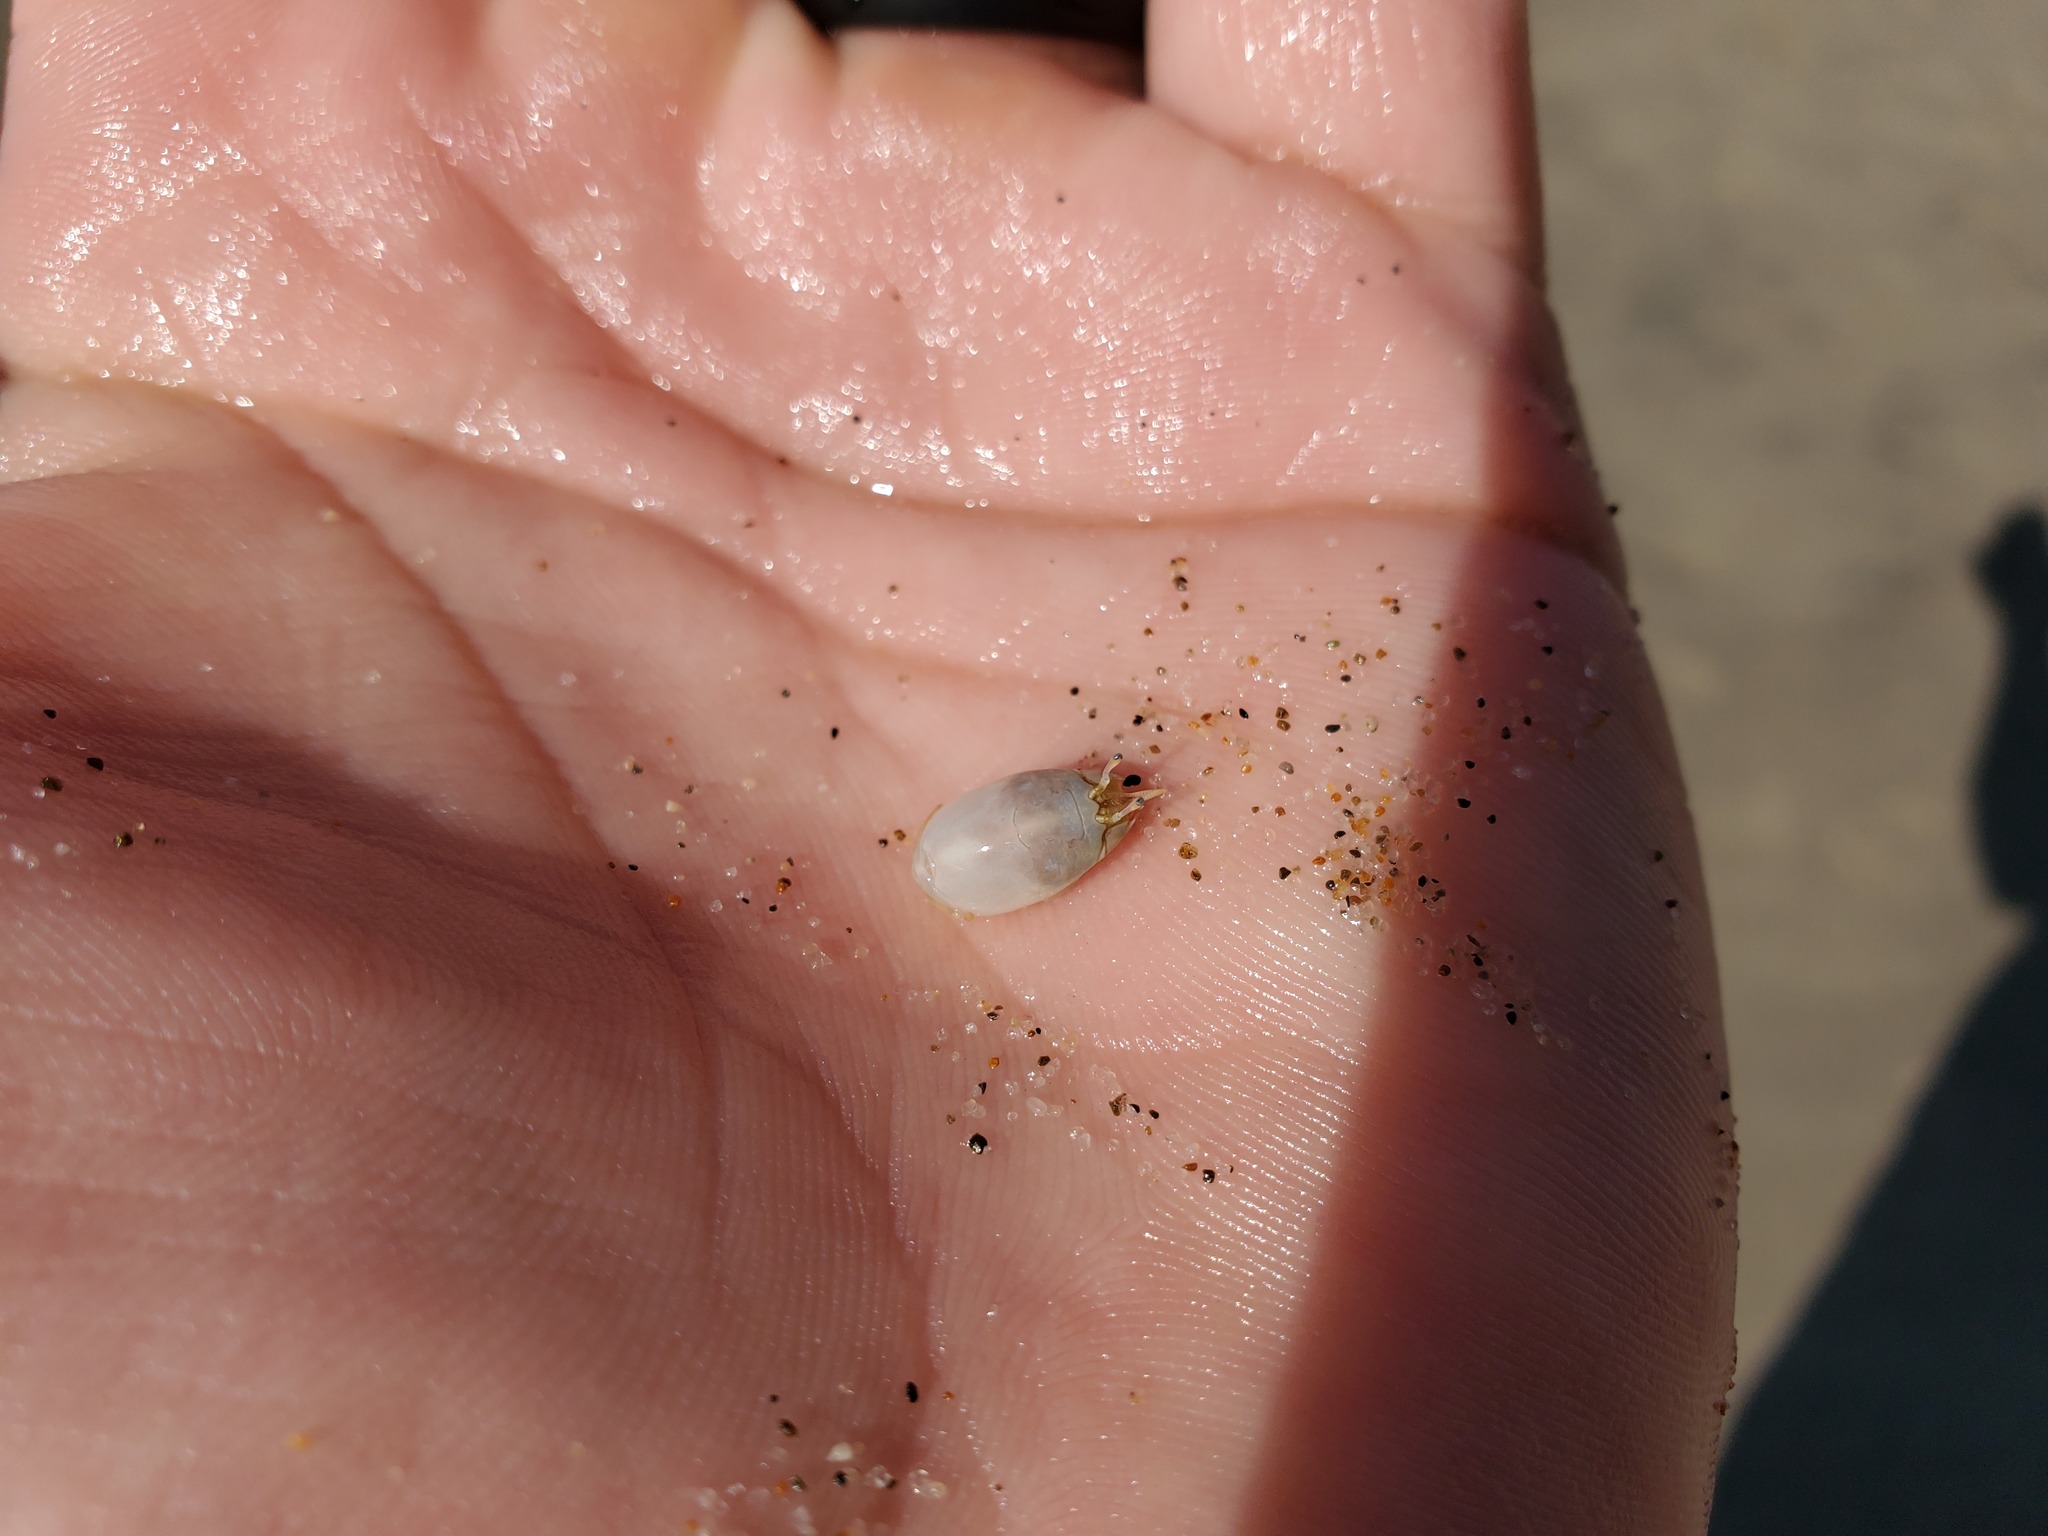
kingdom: Animalia
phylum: Arthropoda
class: Malacostraca
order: Decapoda
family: Hippidae
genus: Emerita
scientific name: Emerita analoga
